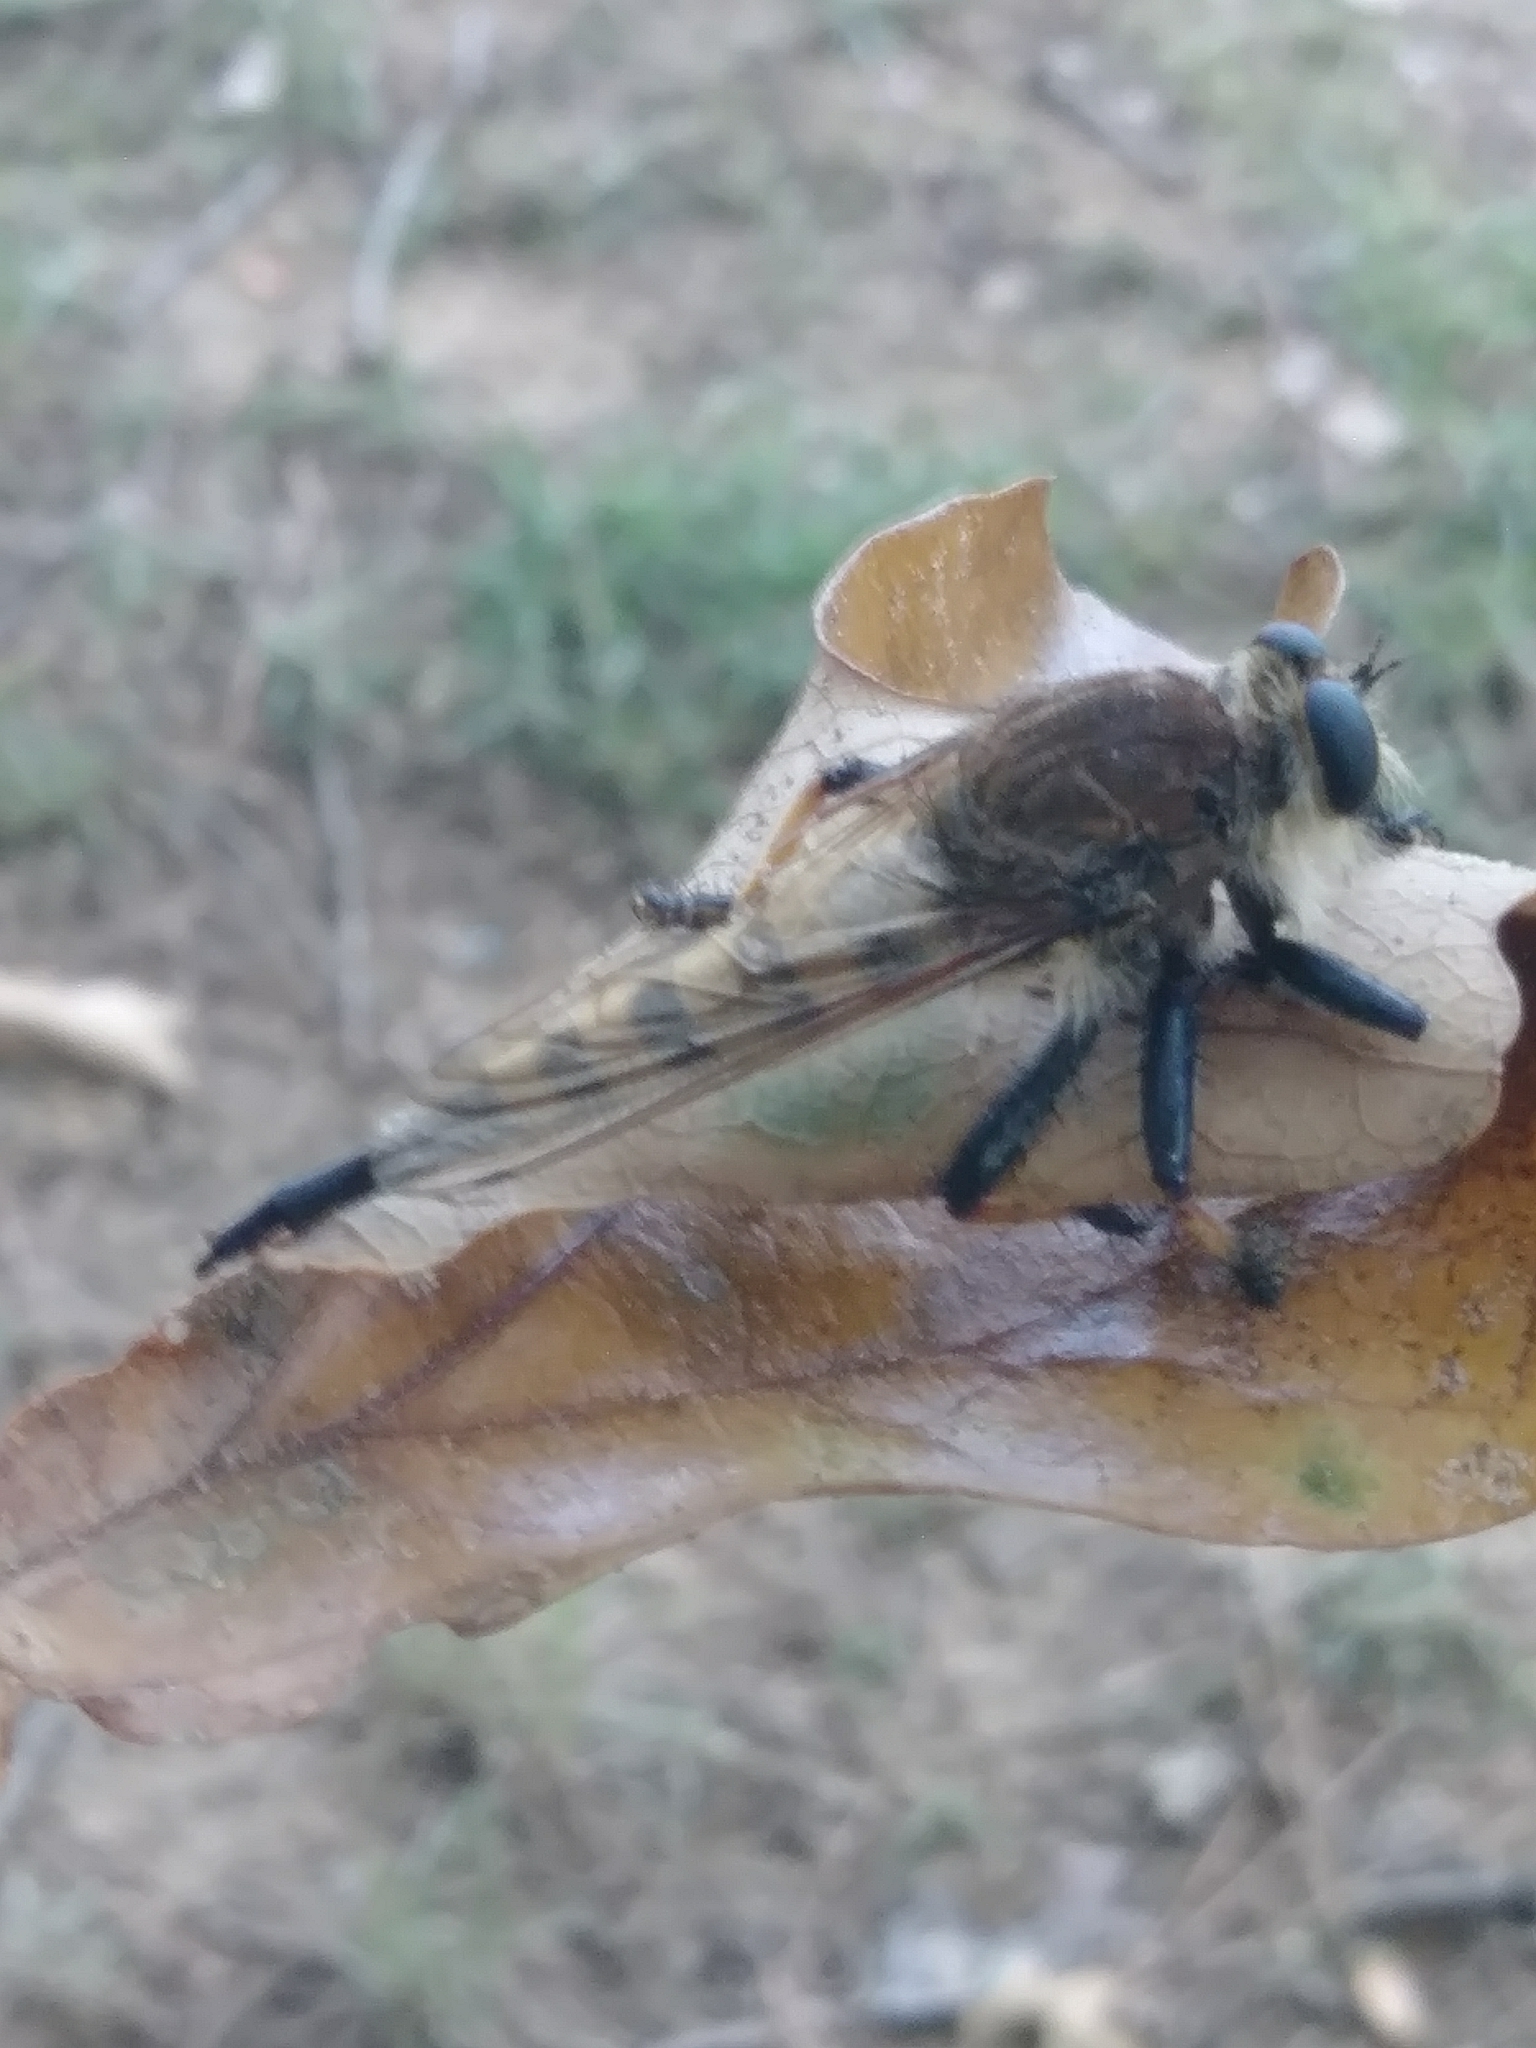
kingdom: Animalia
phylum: Arthropoda
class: Insecta
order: Diptera
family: Asilidae
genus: Promachus
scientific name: Promachus rufipes
